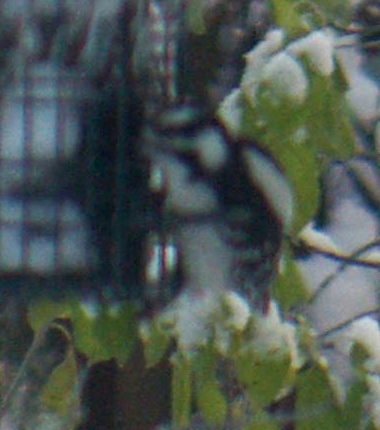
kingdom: Animalia
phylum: Chordata
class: Aves
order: Piciformes
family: Picidae
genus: Dryobates
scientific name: Dryobates pubescens
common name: Downy woodpecker
